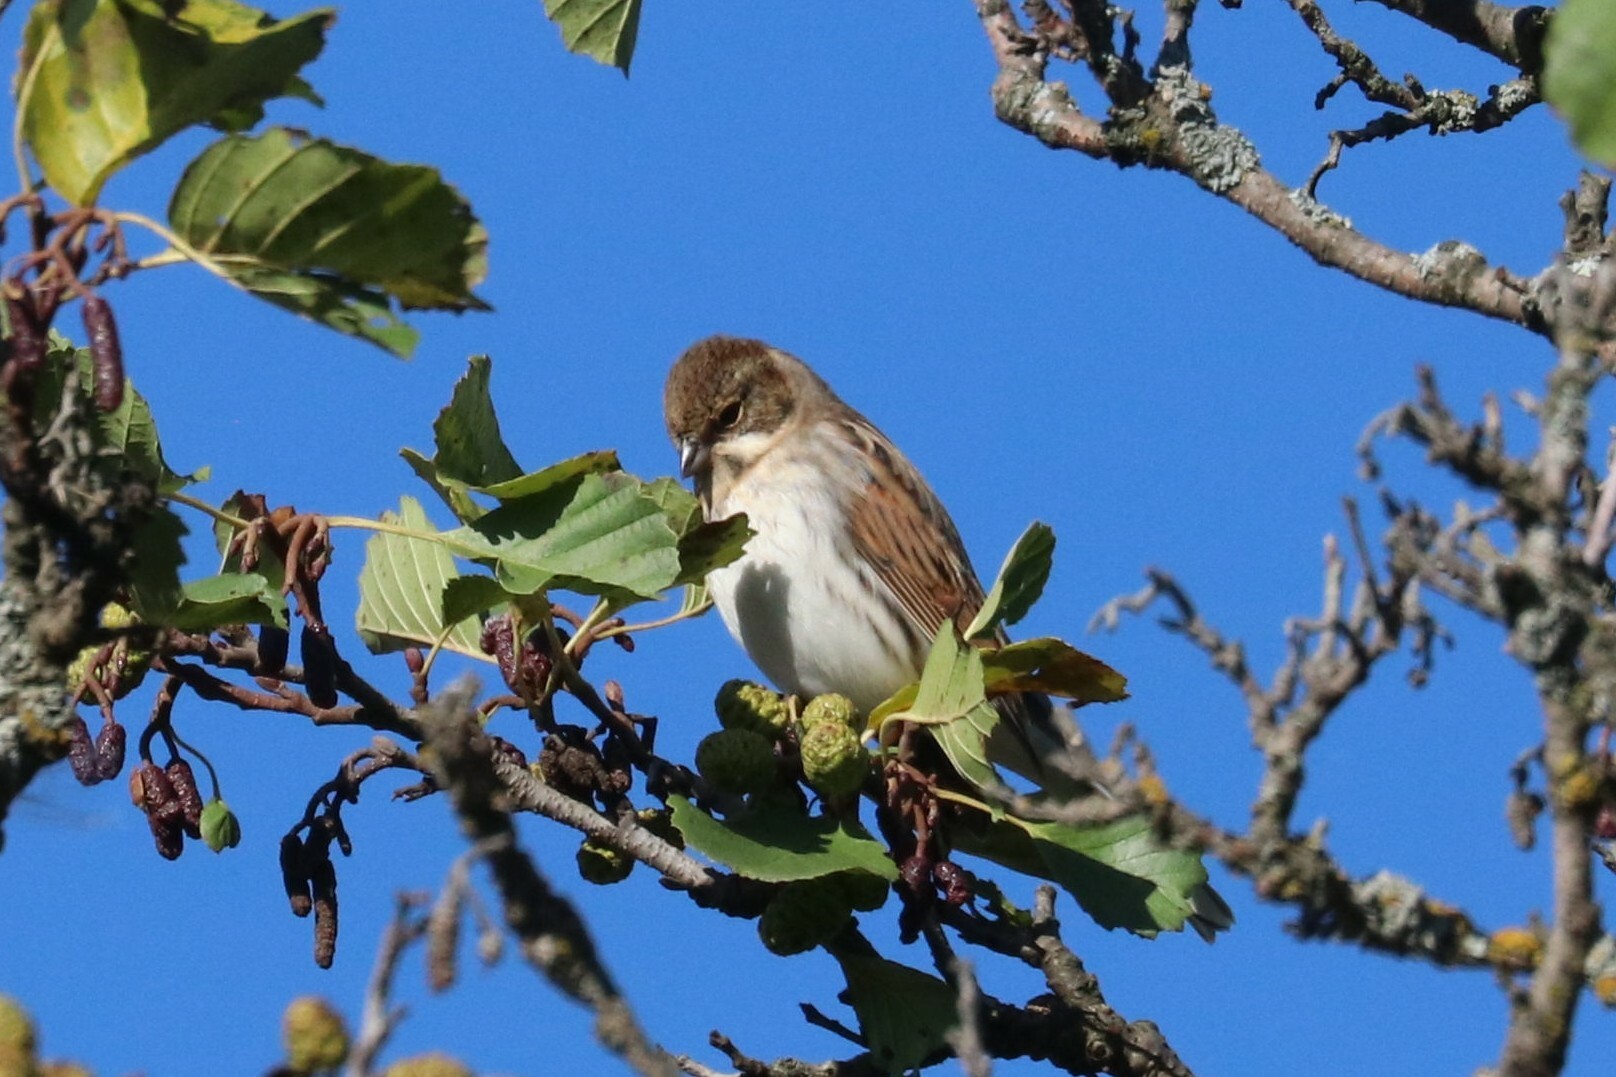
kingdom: Animalia
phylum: Chordata
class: Aves
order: Passeriformes
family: Emberizidae
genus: Emberiza
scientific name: Emberiza schoeniclus
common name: Reed bunting
